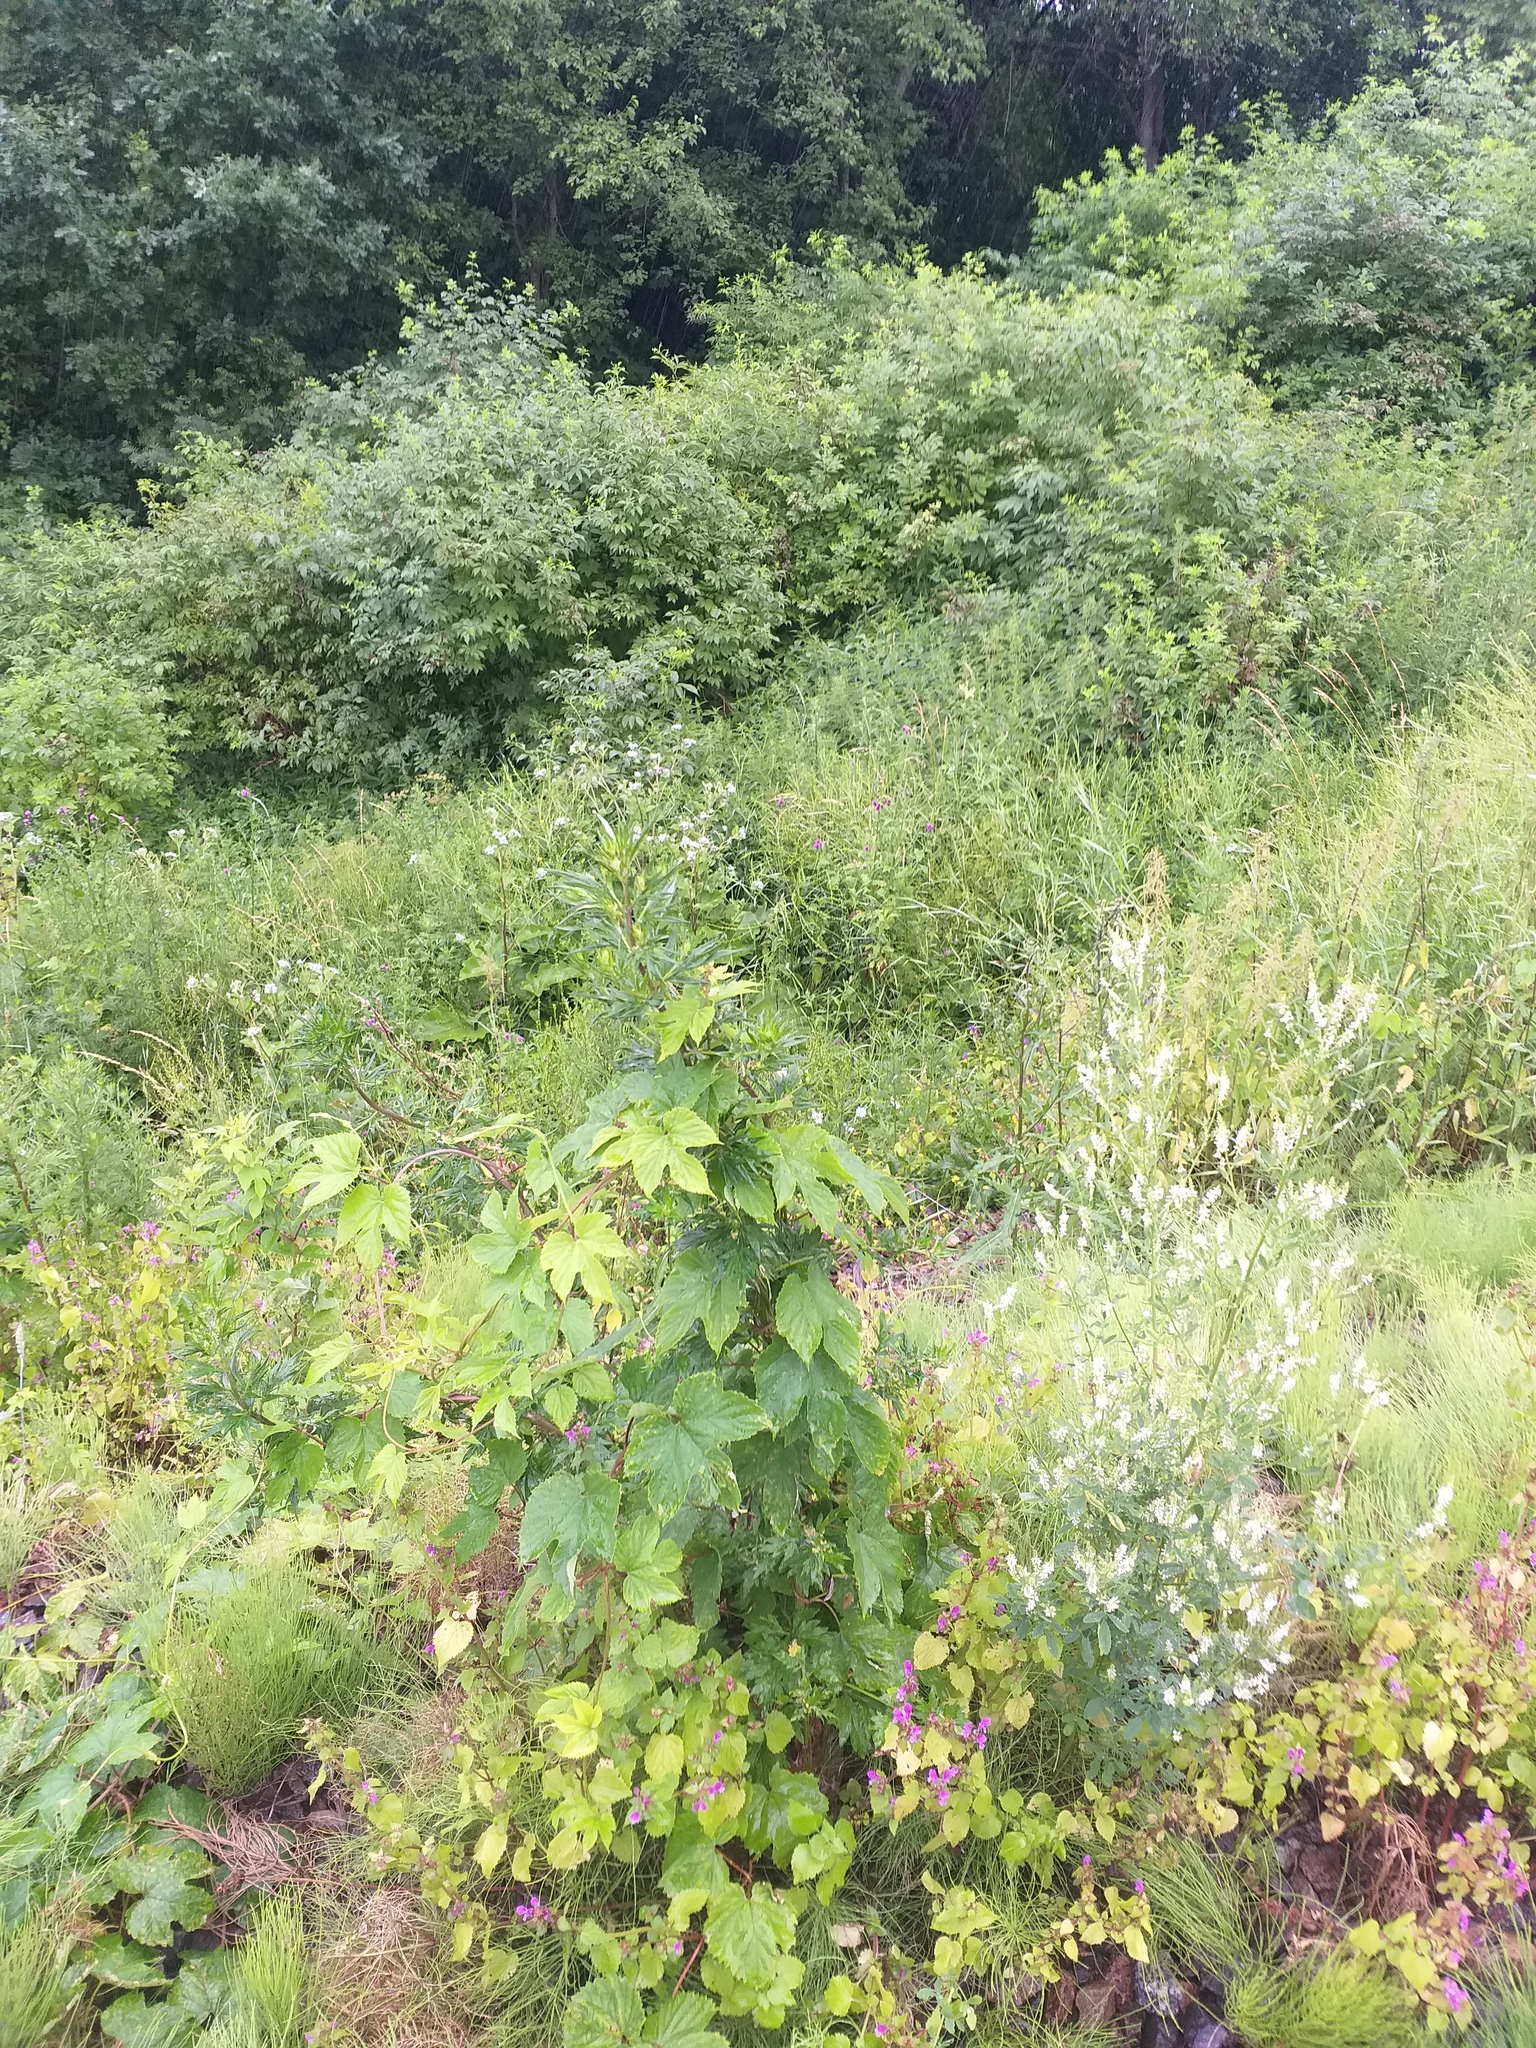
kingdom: Plantae
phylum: Tracheophyta
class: Magnoliopsida
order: Rosales
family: Cannabaceae
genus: Humulus
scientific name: Humulus lupulus
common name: Hop
